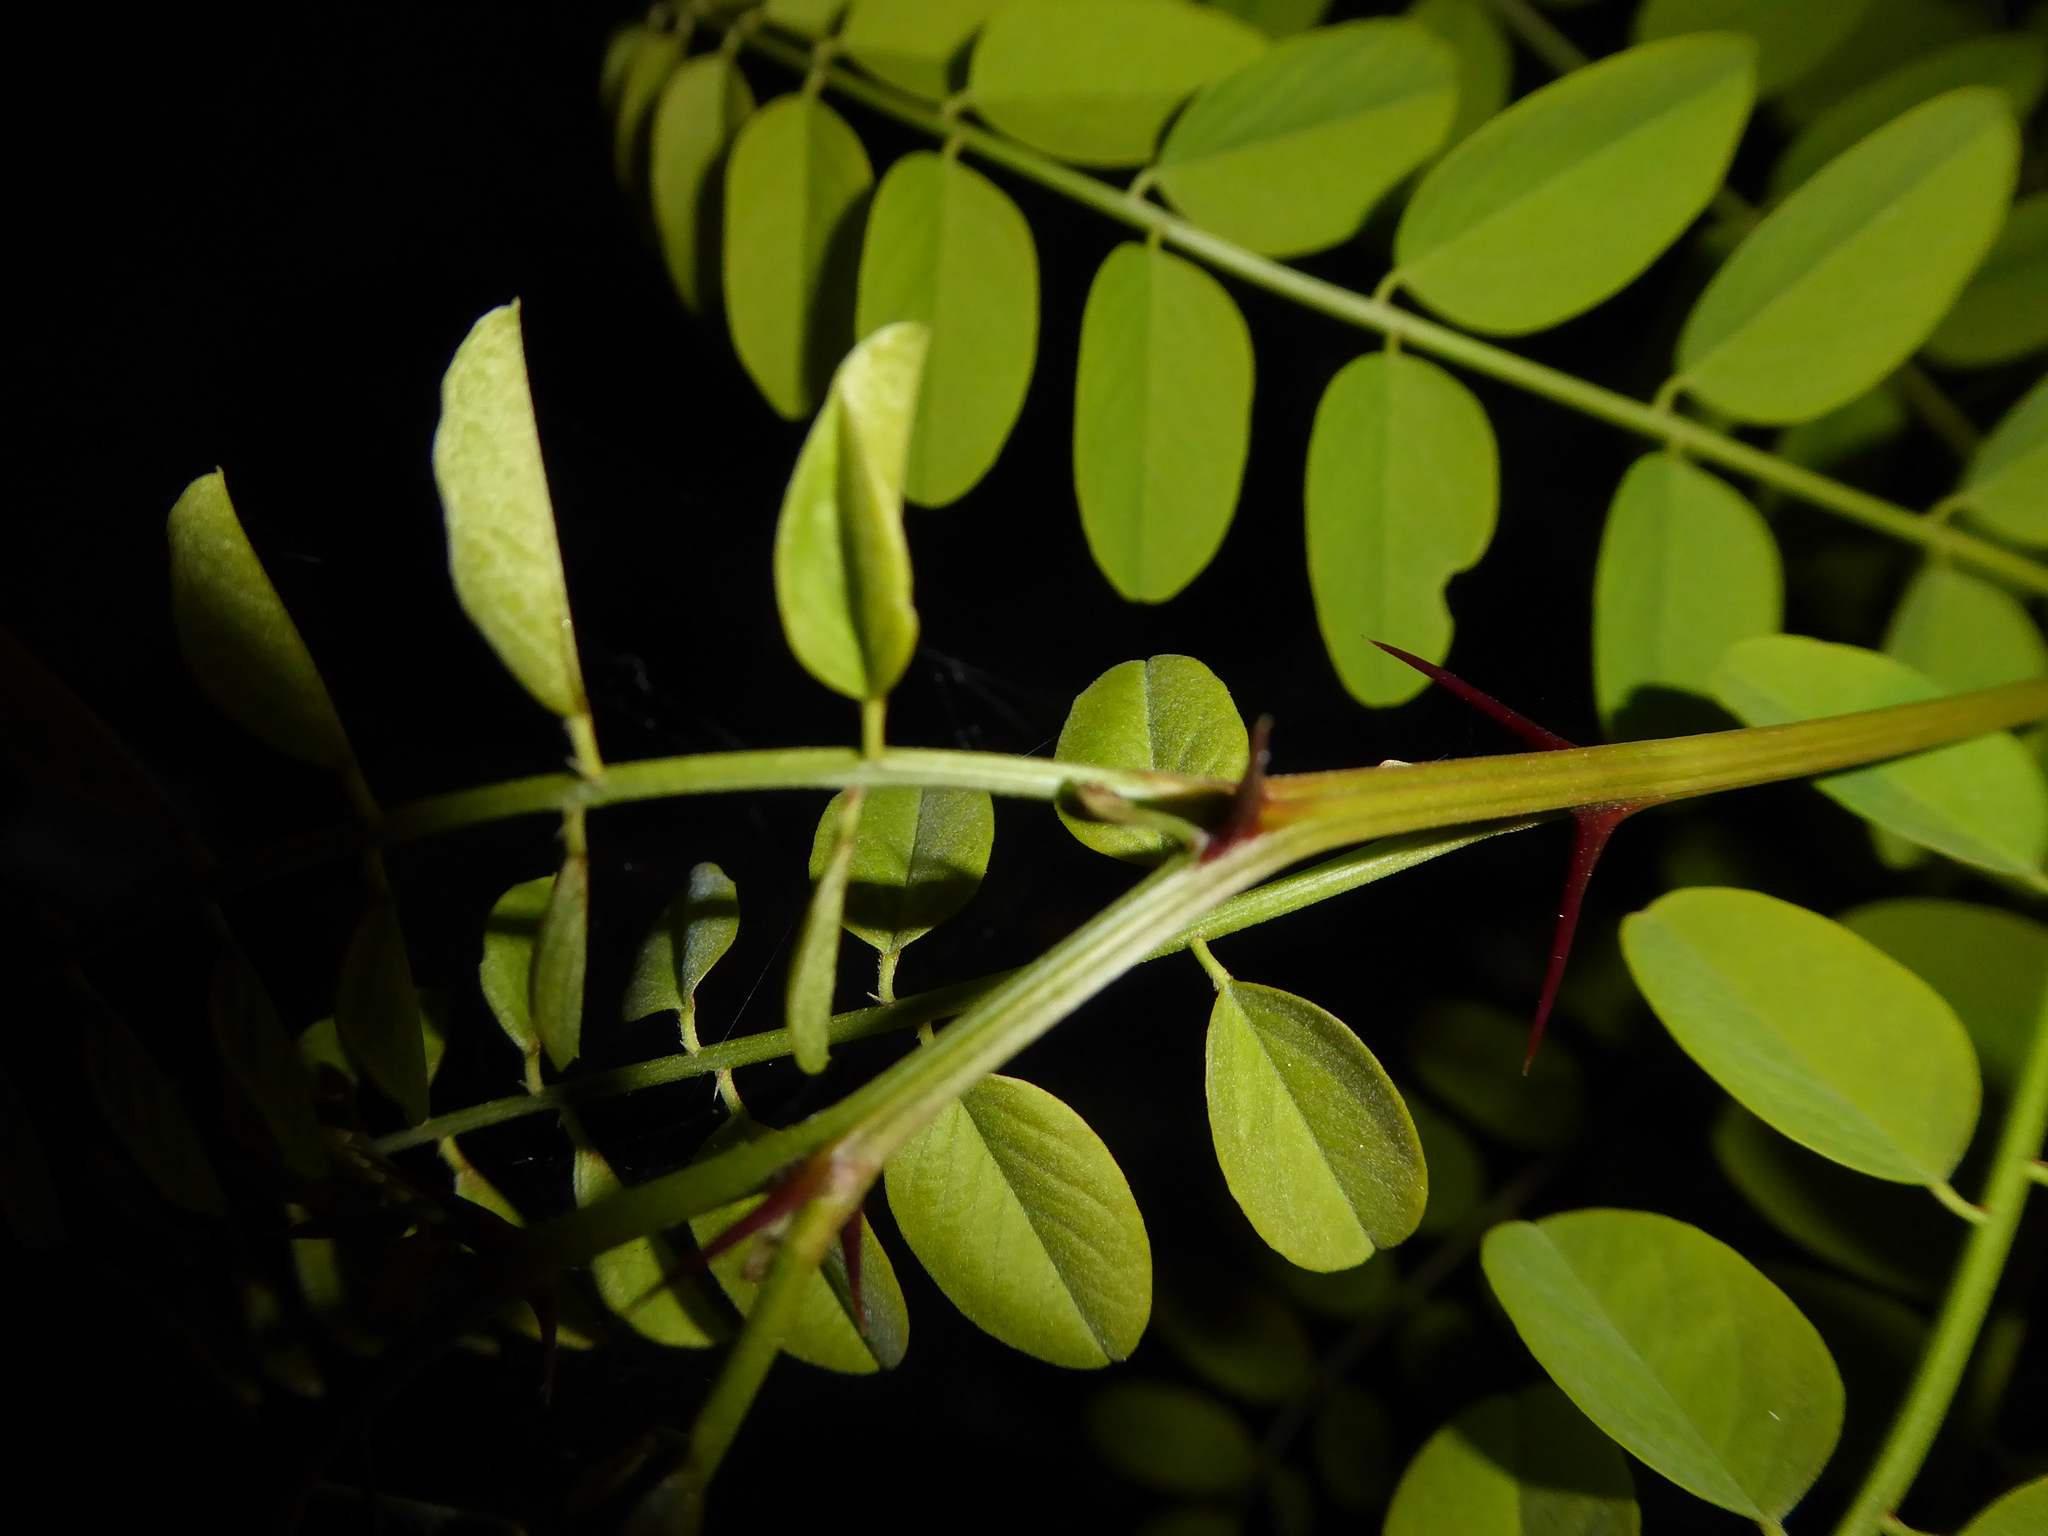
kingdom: Plantae
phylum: Tracheophyta
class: Magnoliopsida
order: Fabales
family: Fabaceae
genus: Robinia
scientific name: Robinia pseudoacacia
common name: Black locust
